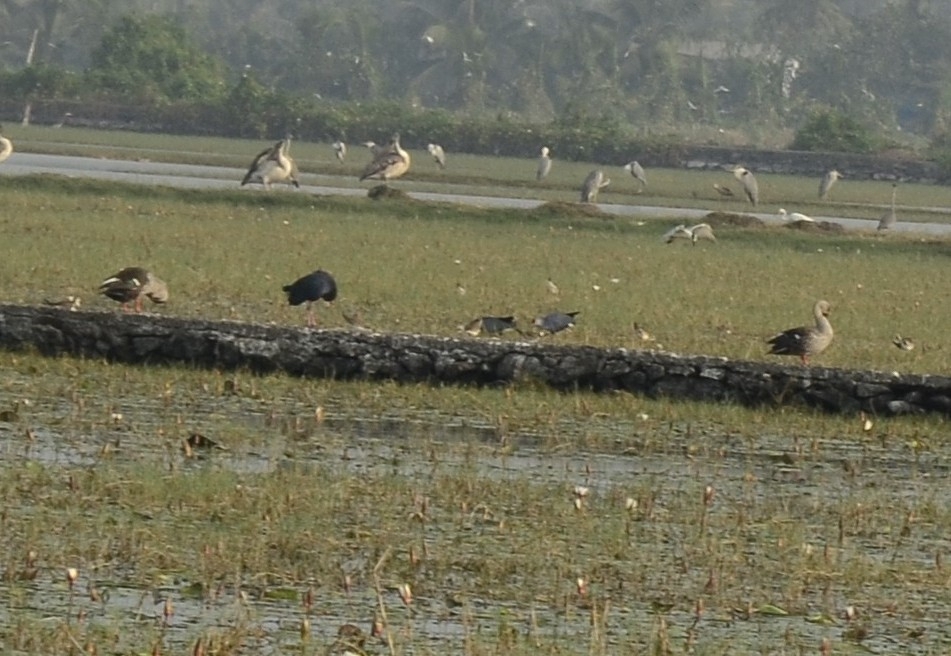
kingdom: Animalia
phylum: Chordata
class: Aves
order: Anseriformes
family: Anatidae
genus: Anas
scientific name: Anas poecilorhyncha
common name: Indian spot-billed duck
